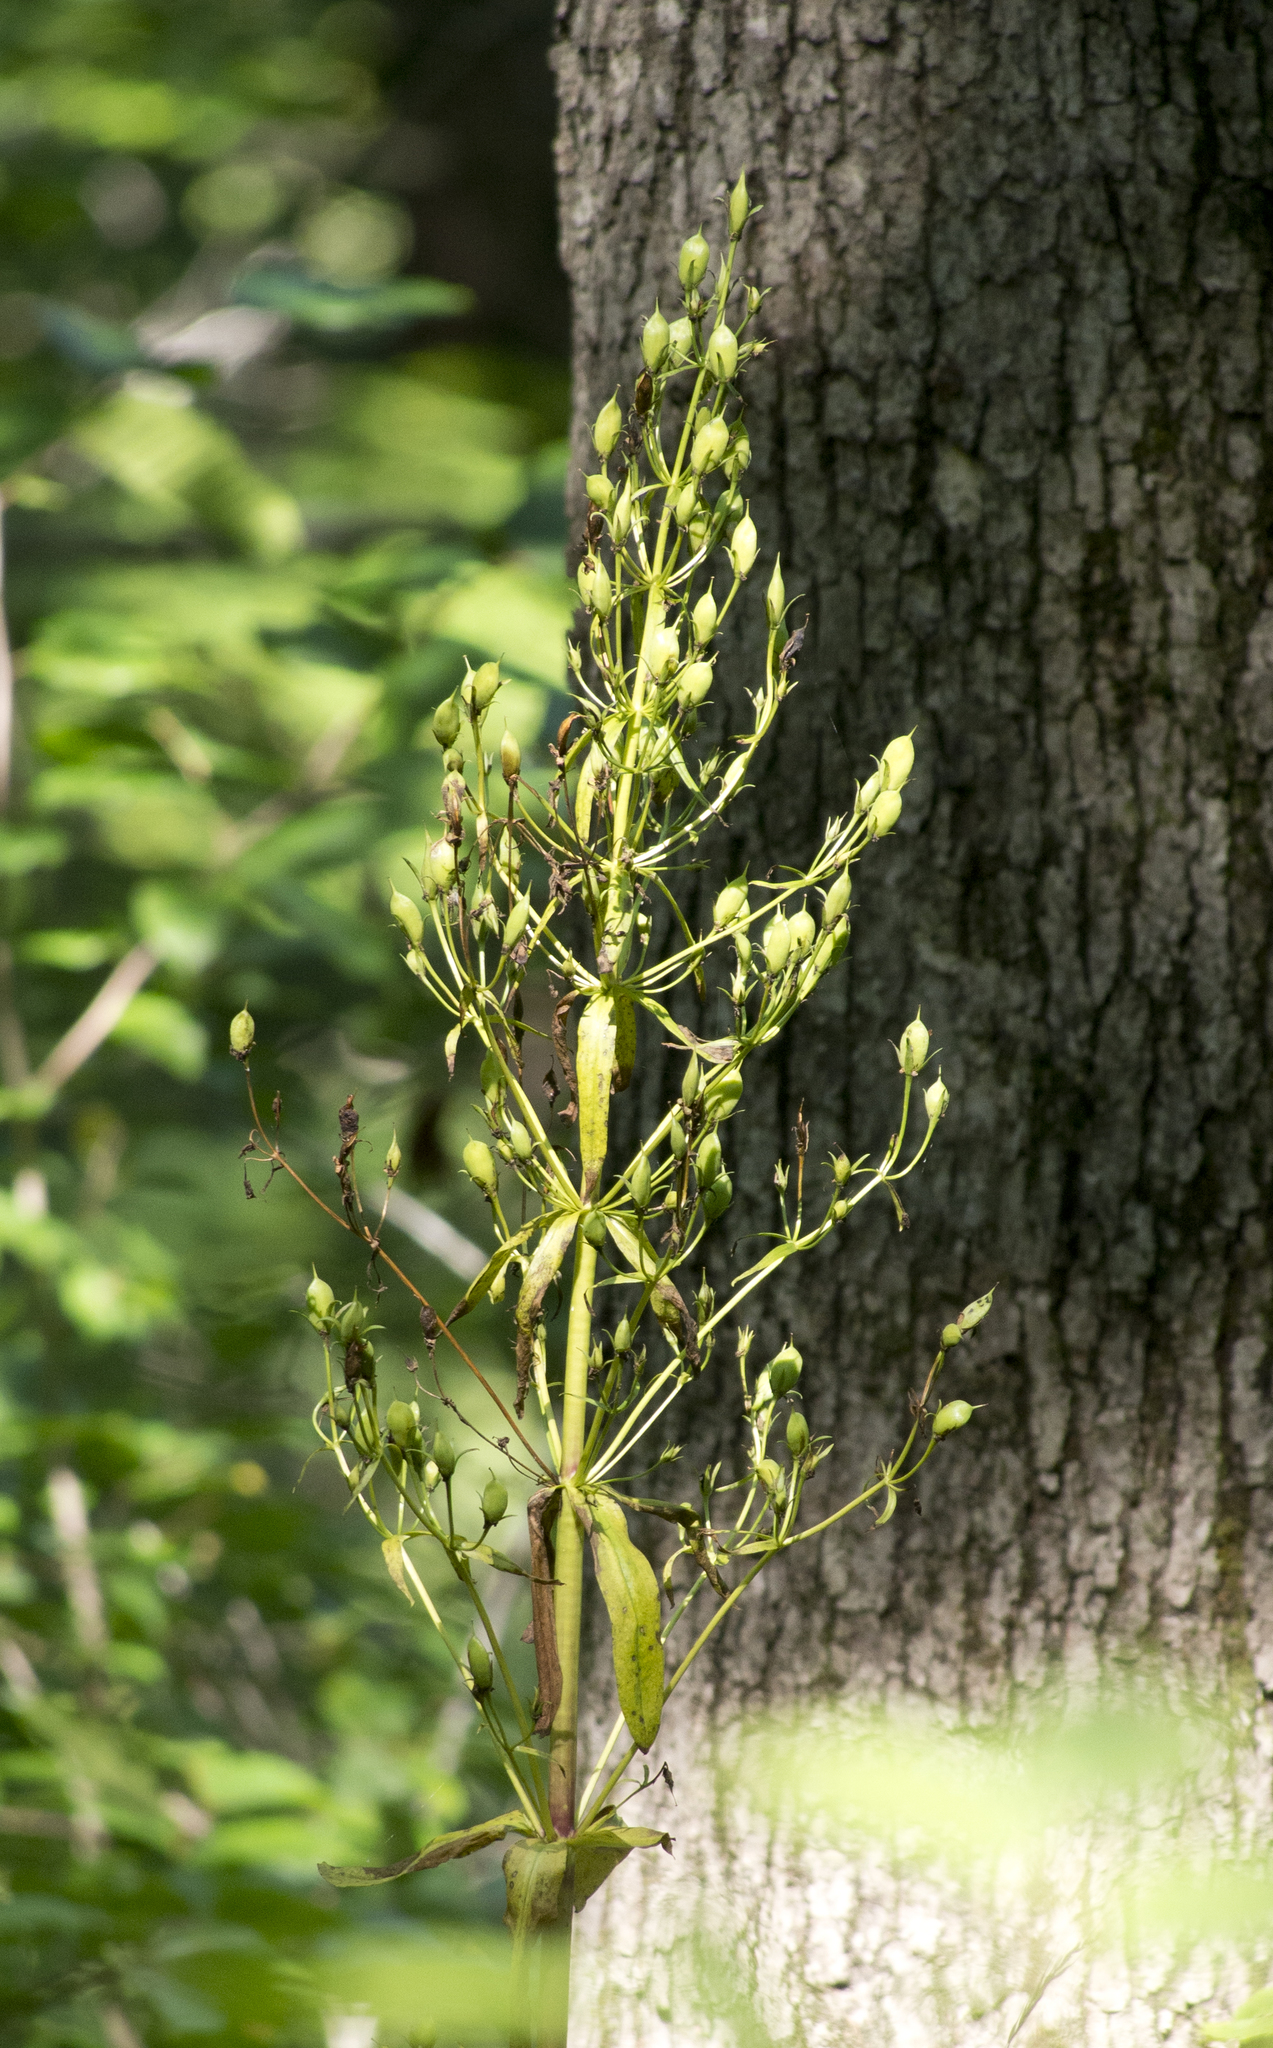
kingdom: Plantae
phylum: Tracheophyta
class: Magnoliopsida
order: Gentianales
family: Gentianaceae
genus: Frasera
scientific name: Frasera caroliniensis
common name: American columbo
